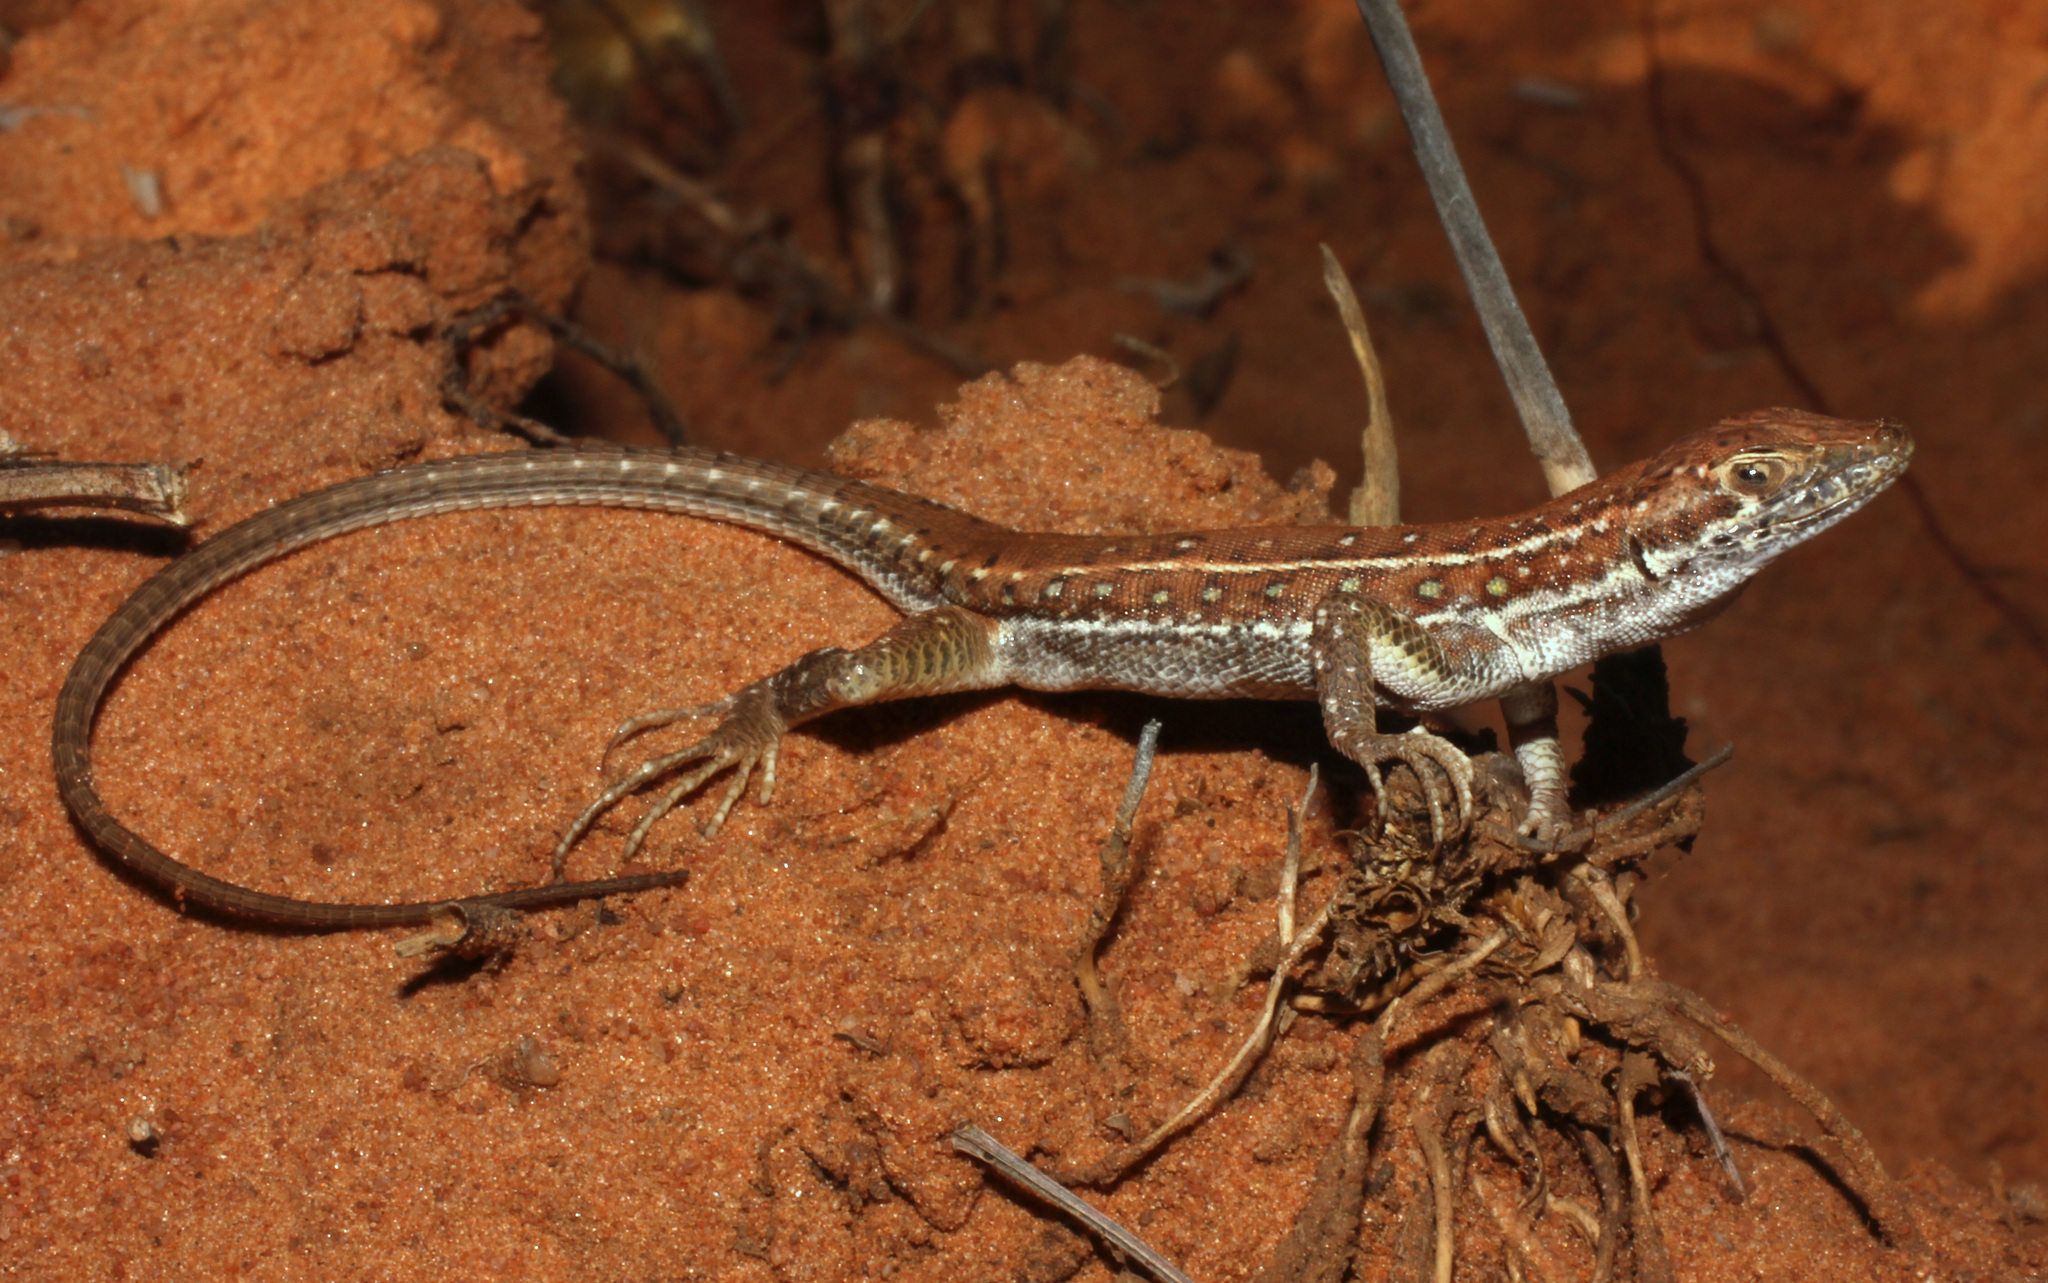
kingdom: Animalia
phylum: Chordata
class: Squamata
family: Lacertidae
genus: Pedioplanis
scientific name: Pedioplanis lineoocellata
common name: Spotted sand lizard
